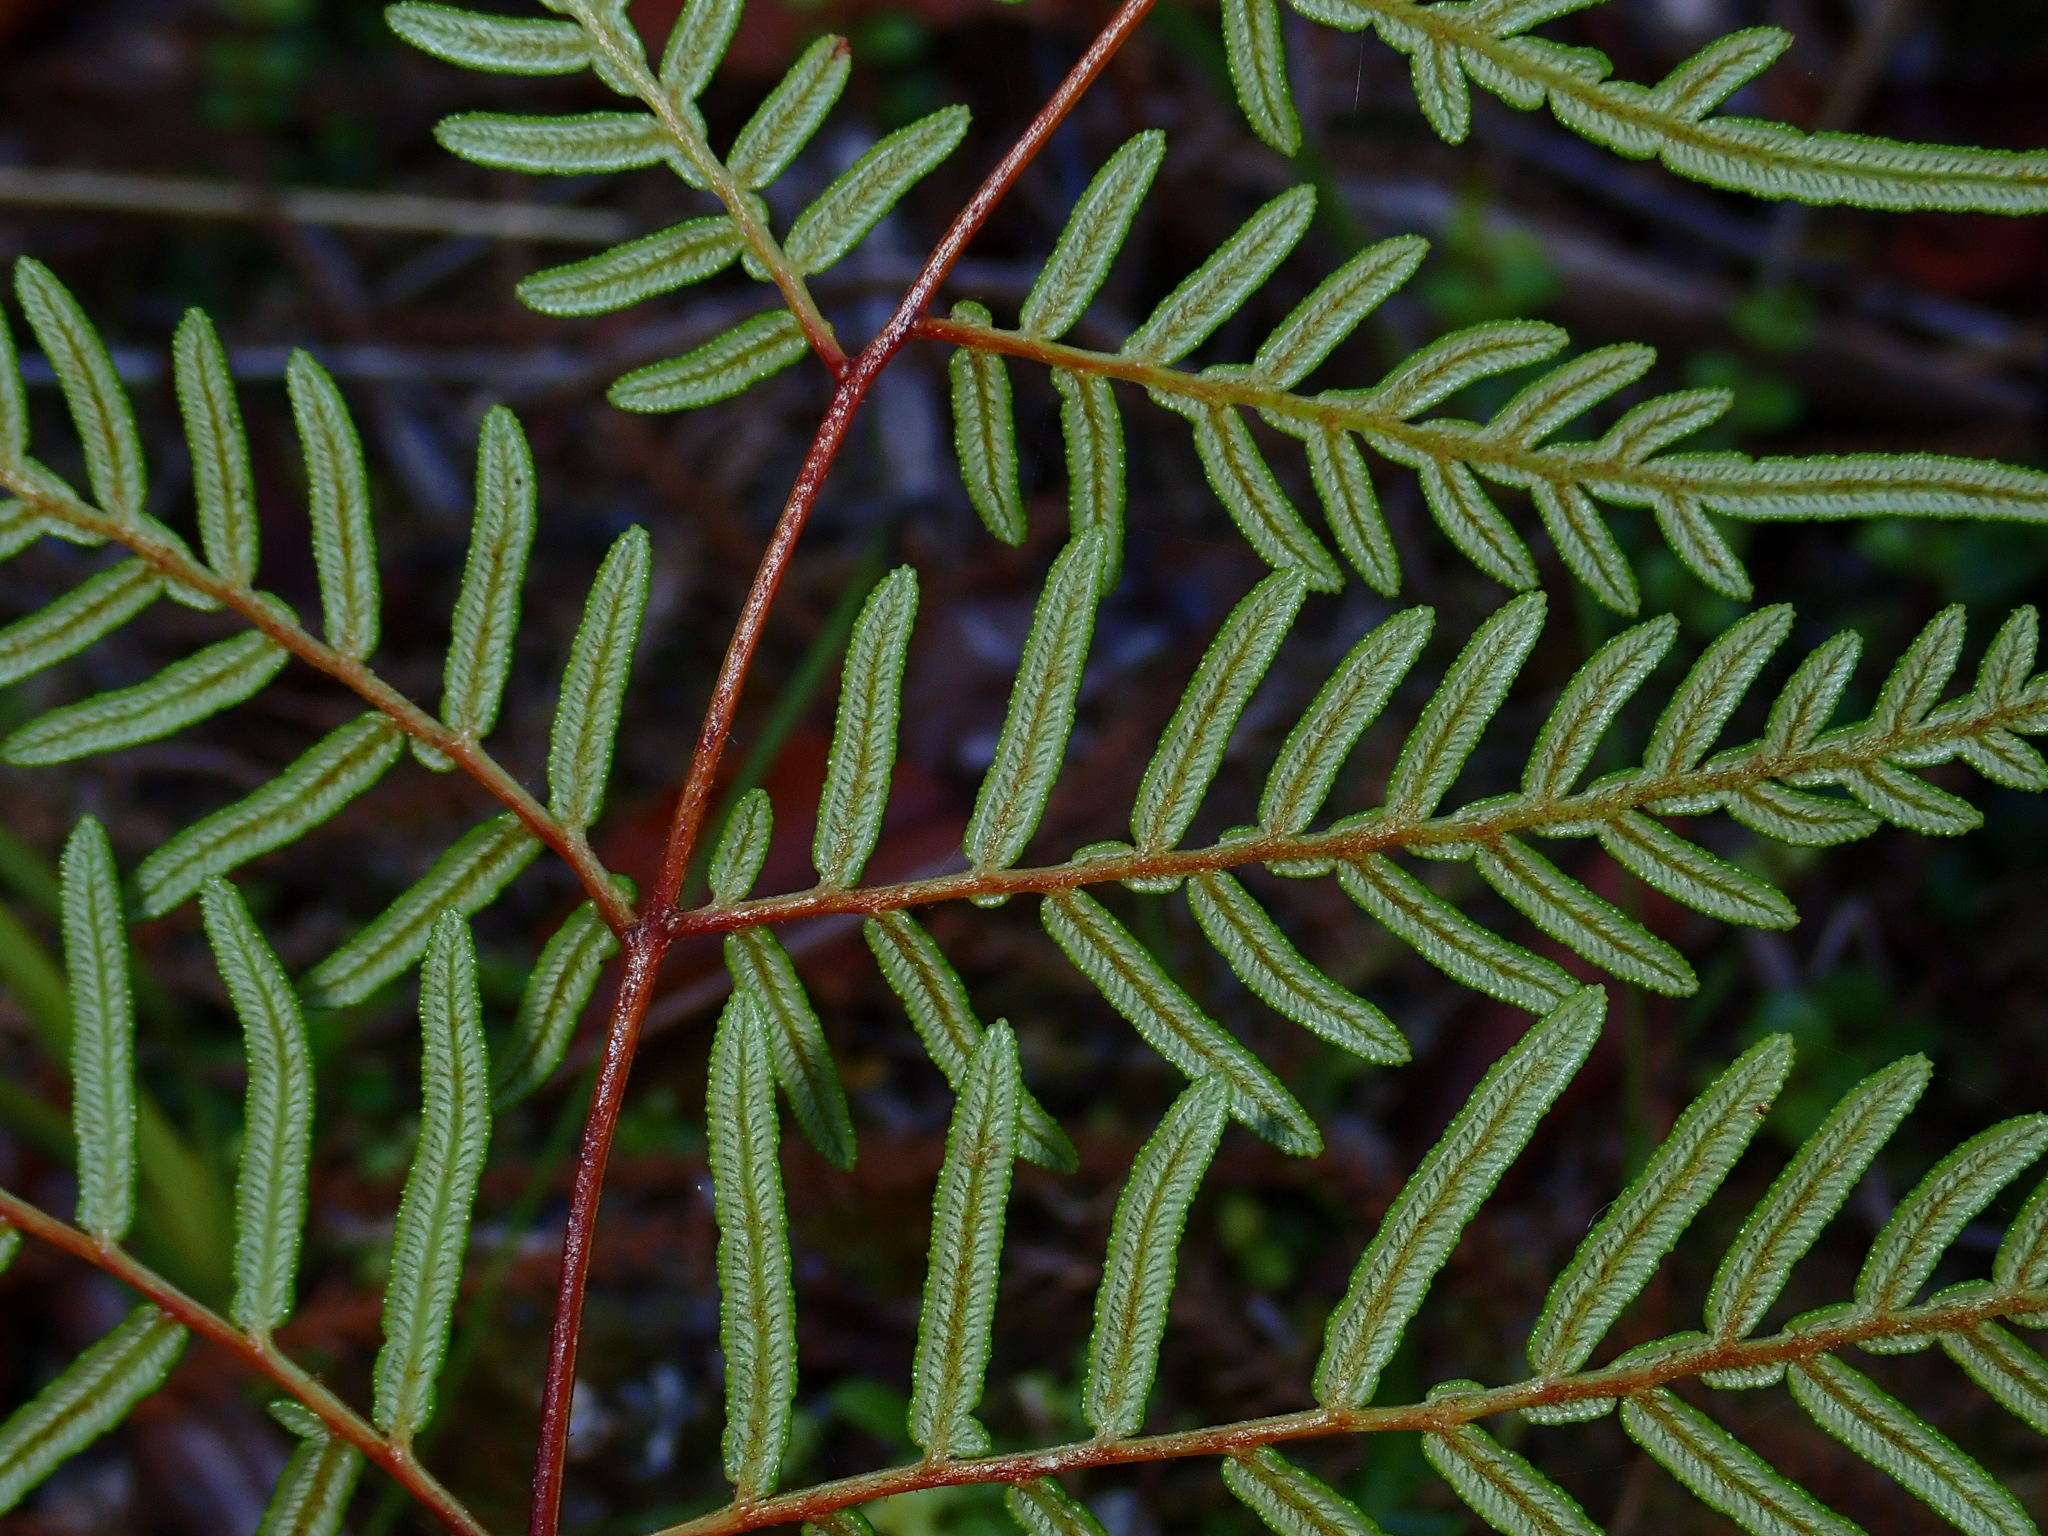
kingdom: Plantae
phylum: Tracheophyta
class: Polypodiopsida
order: Polypodiales
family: Dennstaedtiaceae
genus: Pteridium
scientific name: Pteridium esculentum
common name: Bracken fern
